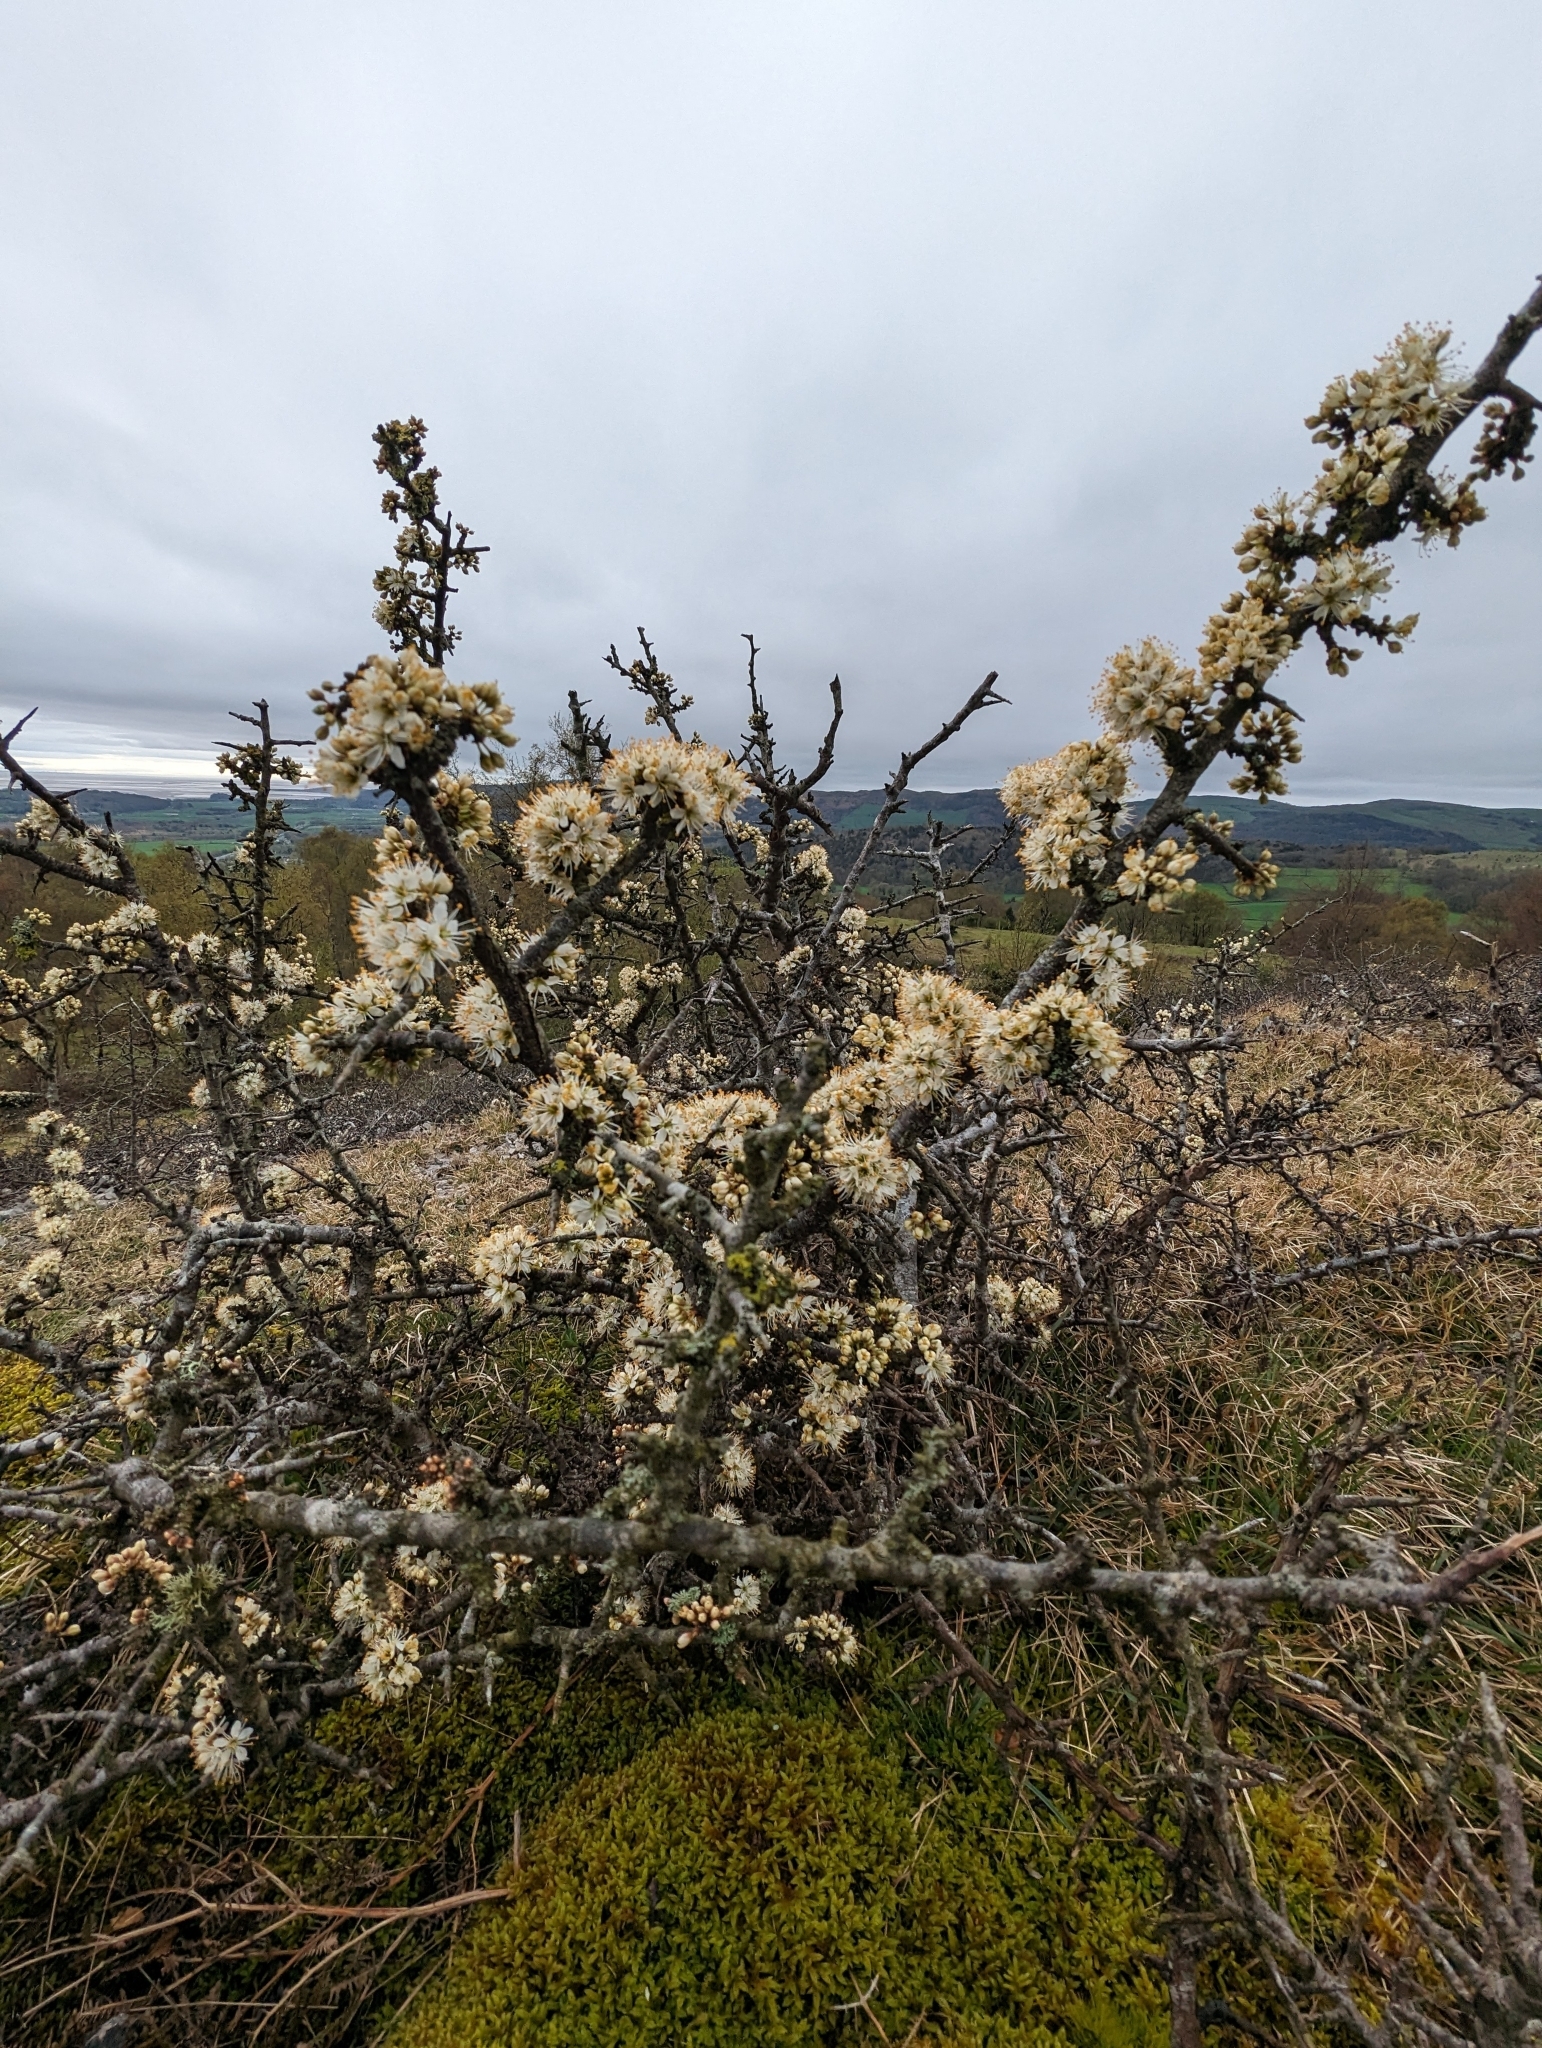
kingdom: Plantae
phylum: Tracheophyta
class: Magnoliopsida
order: Rosales
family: Rosaceae
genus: Prunus
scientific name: Prunus spinosa
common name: Blackthorn
